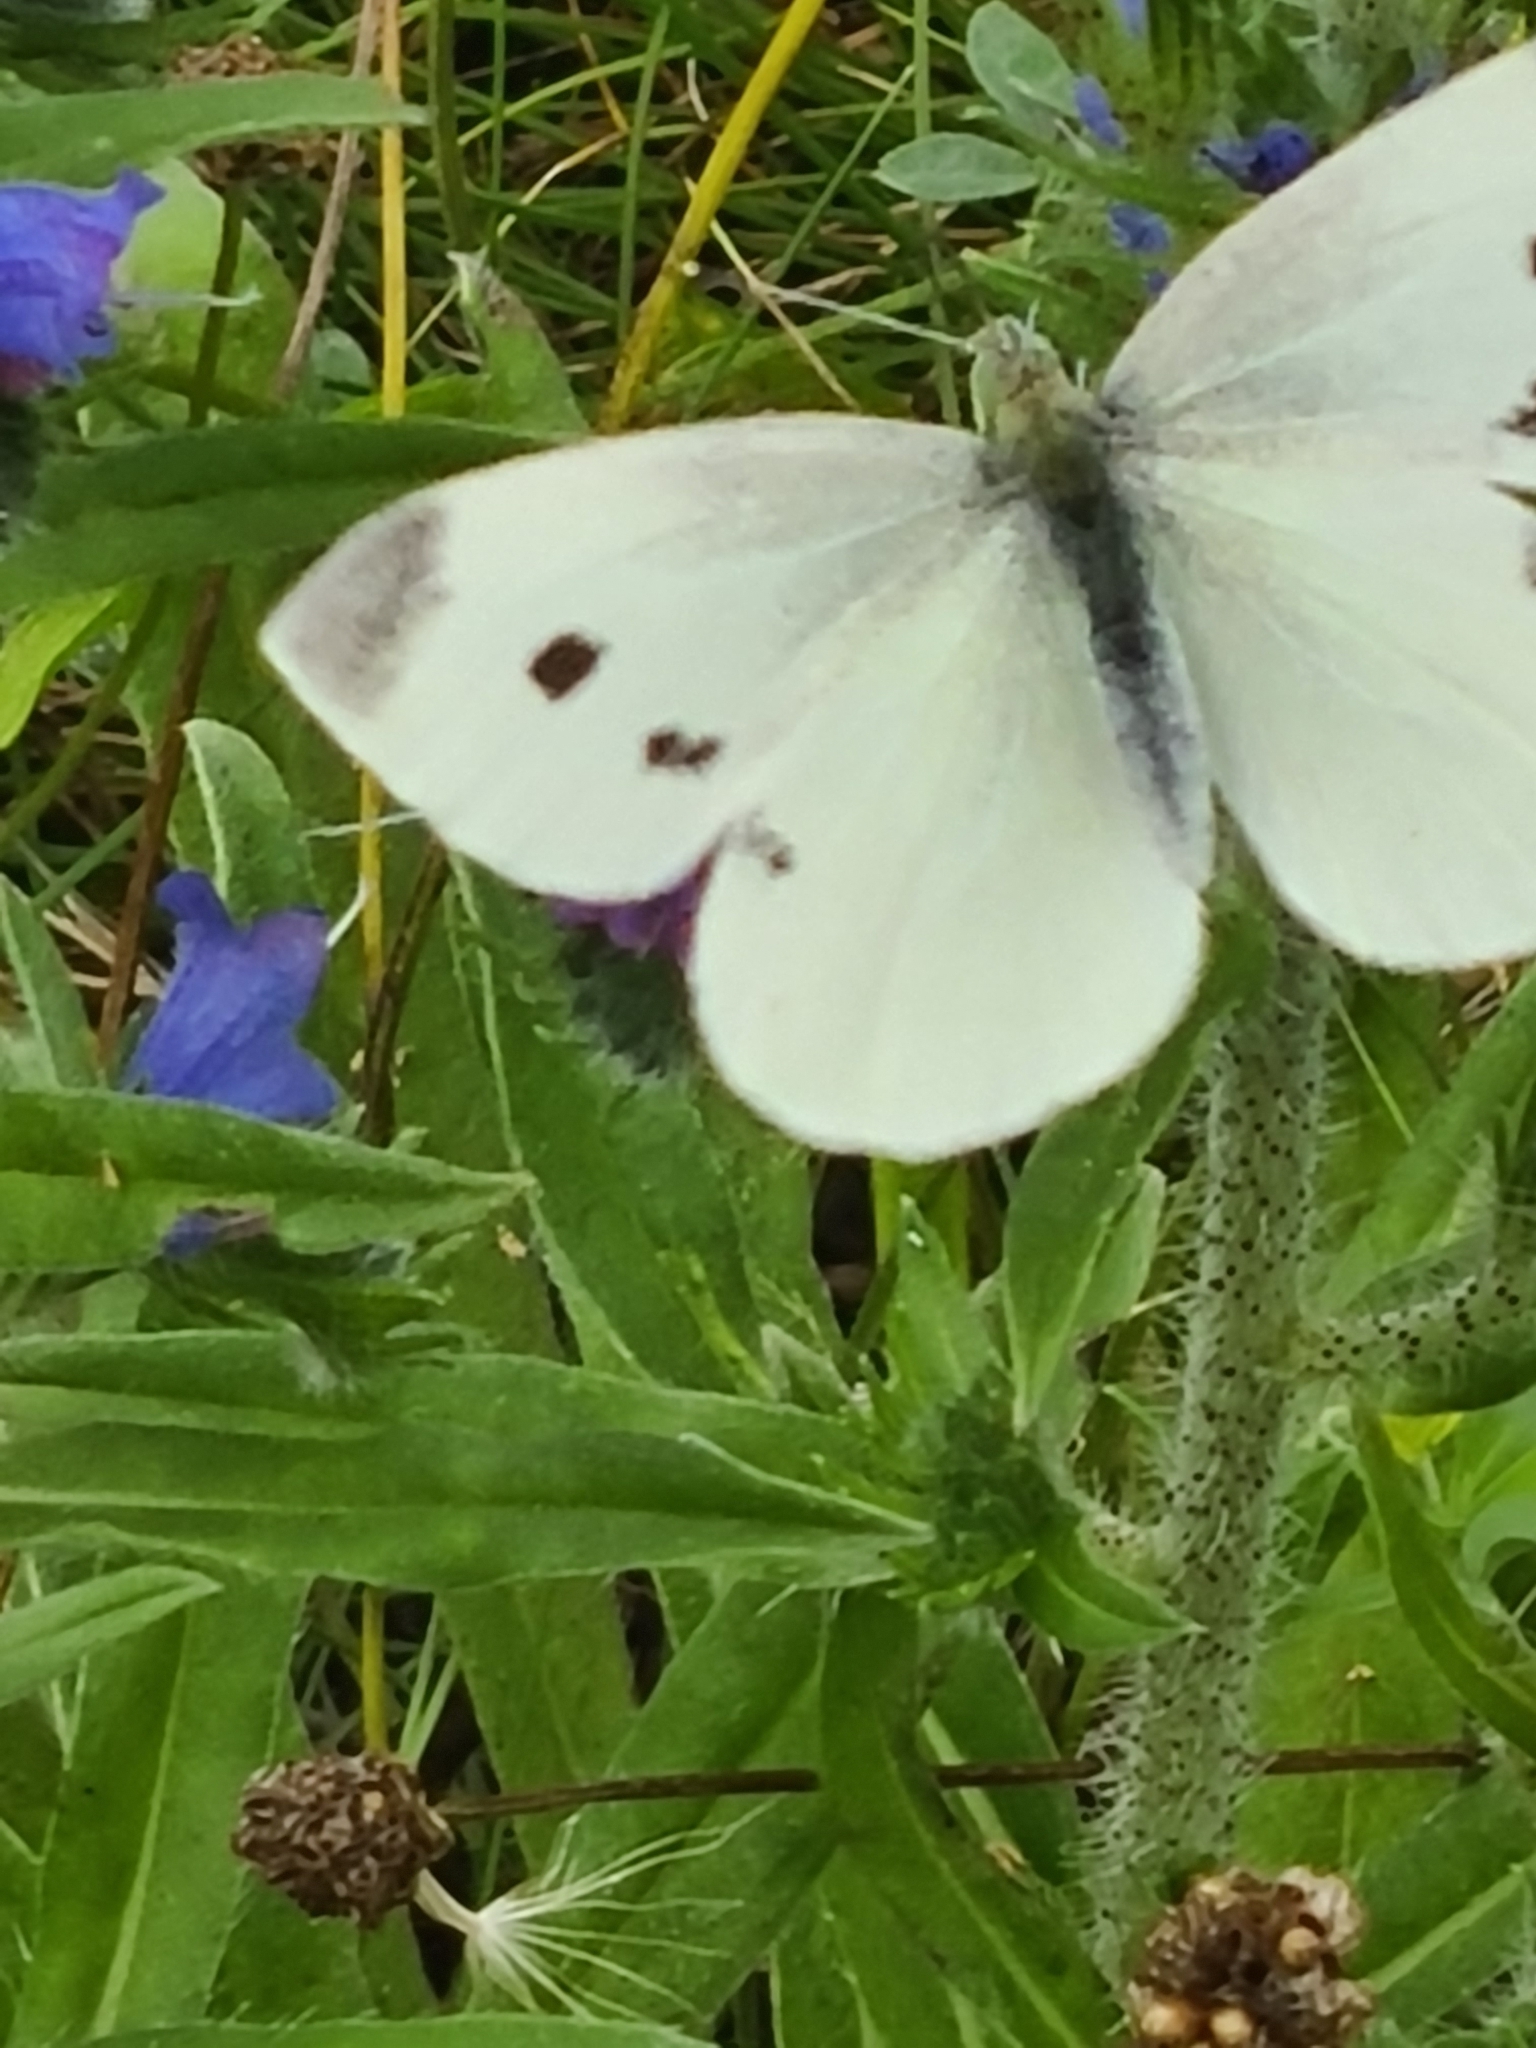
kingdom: Animalia
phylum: Arthropoda
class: Insecta
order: Lepidoptera
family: Pieridae
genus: Pieris
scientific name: Pieris rapae
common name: Small white
